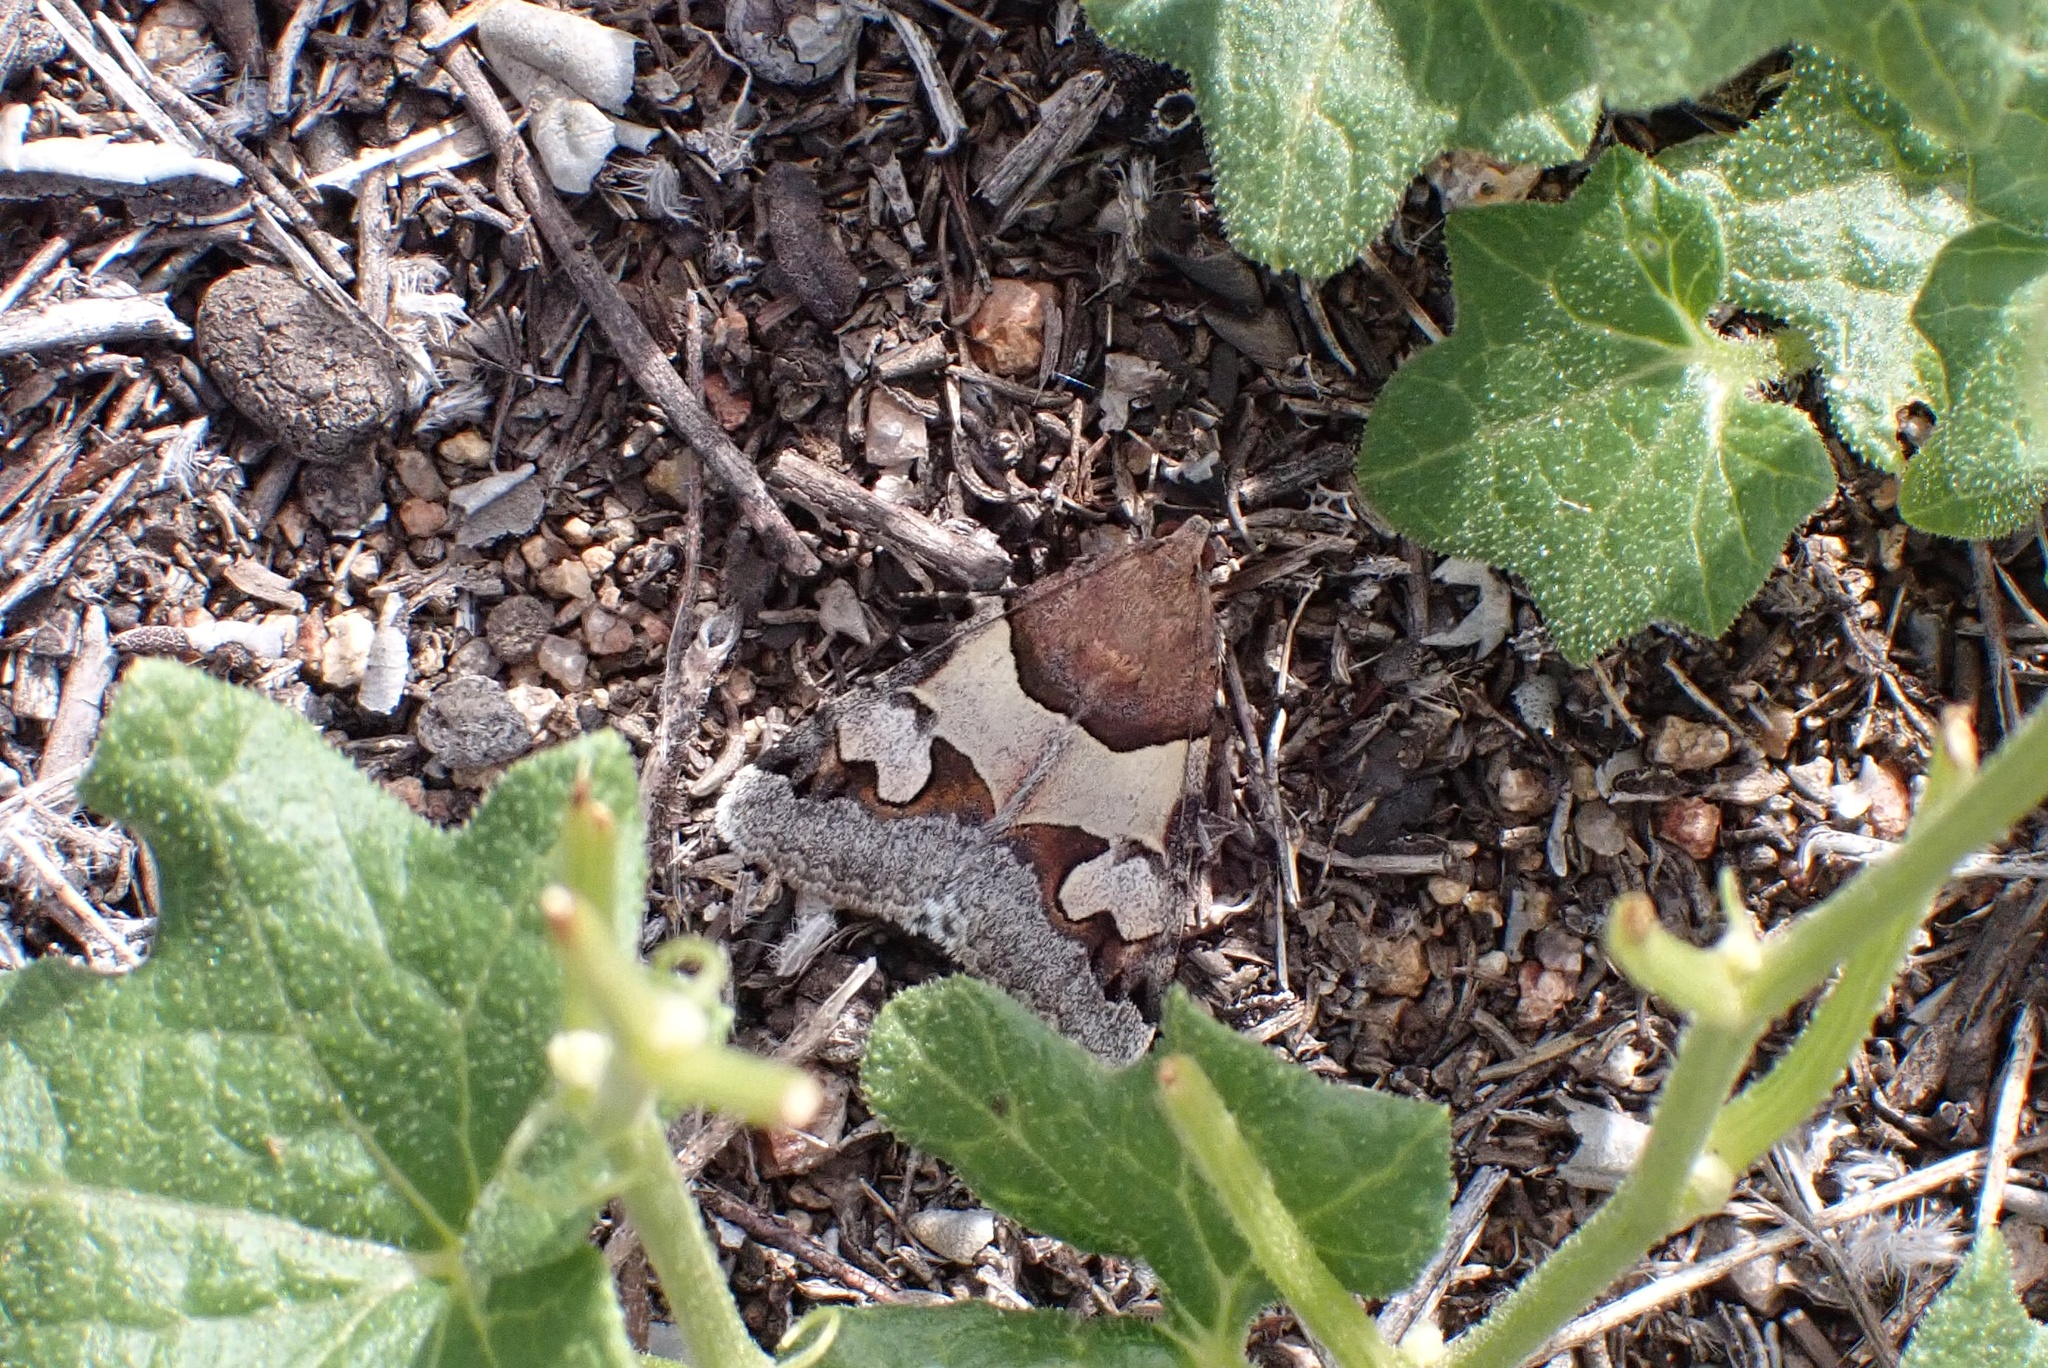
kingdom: Animalia
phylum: Arthropoda
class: Insecta
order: Lepidoptera
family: Erebidae
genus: Drasteria
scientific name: Drasteria pallescens
